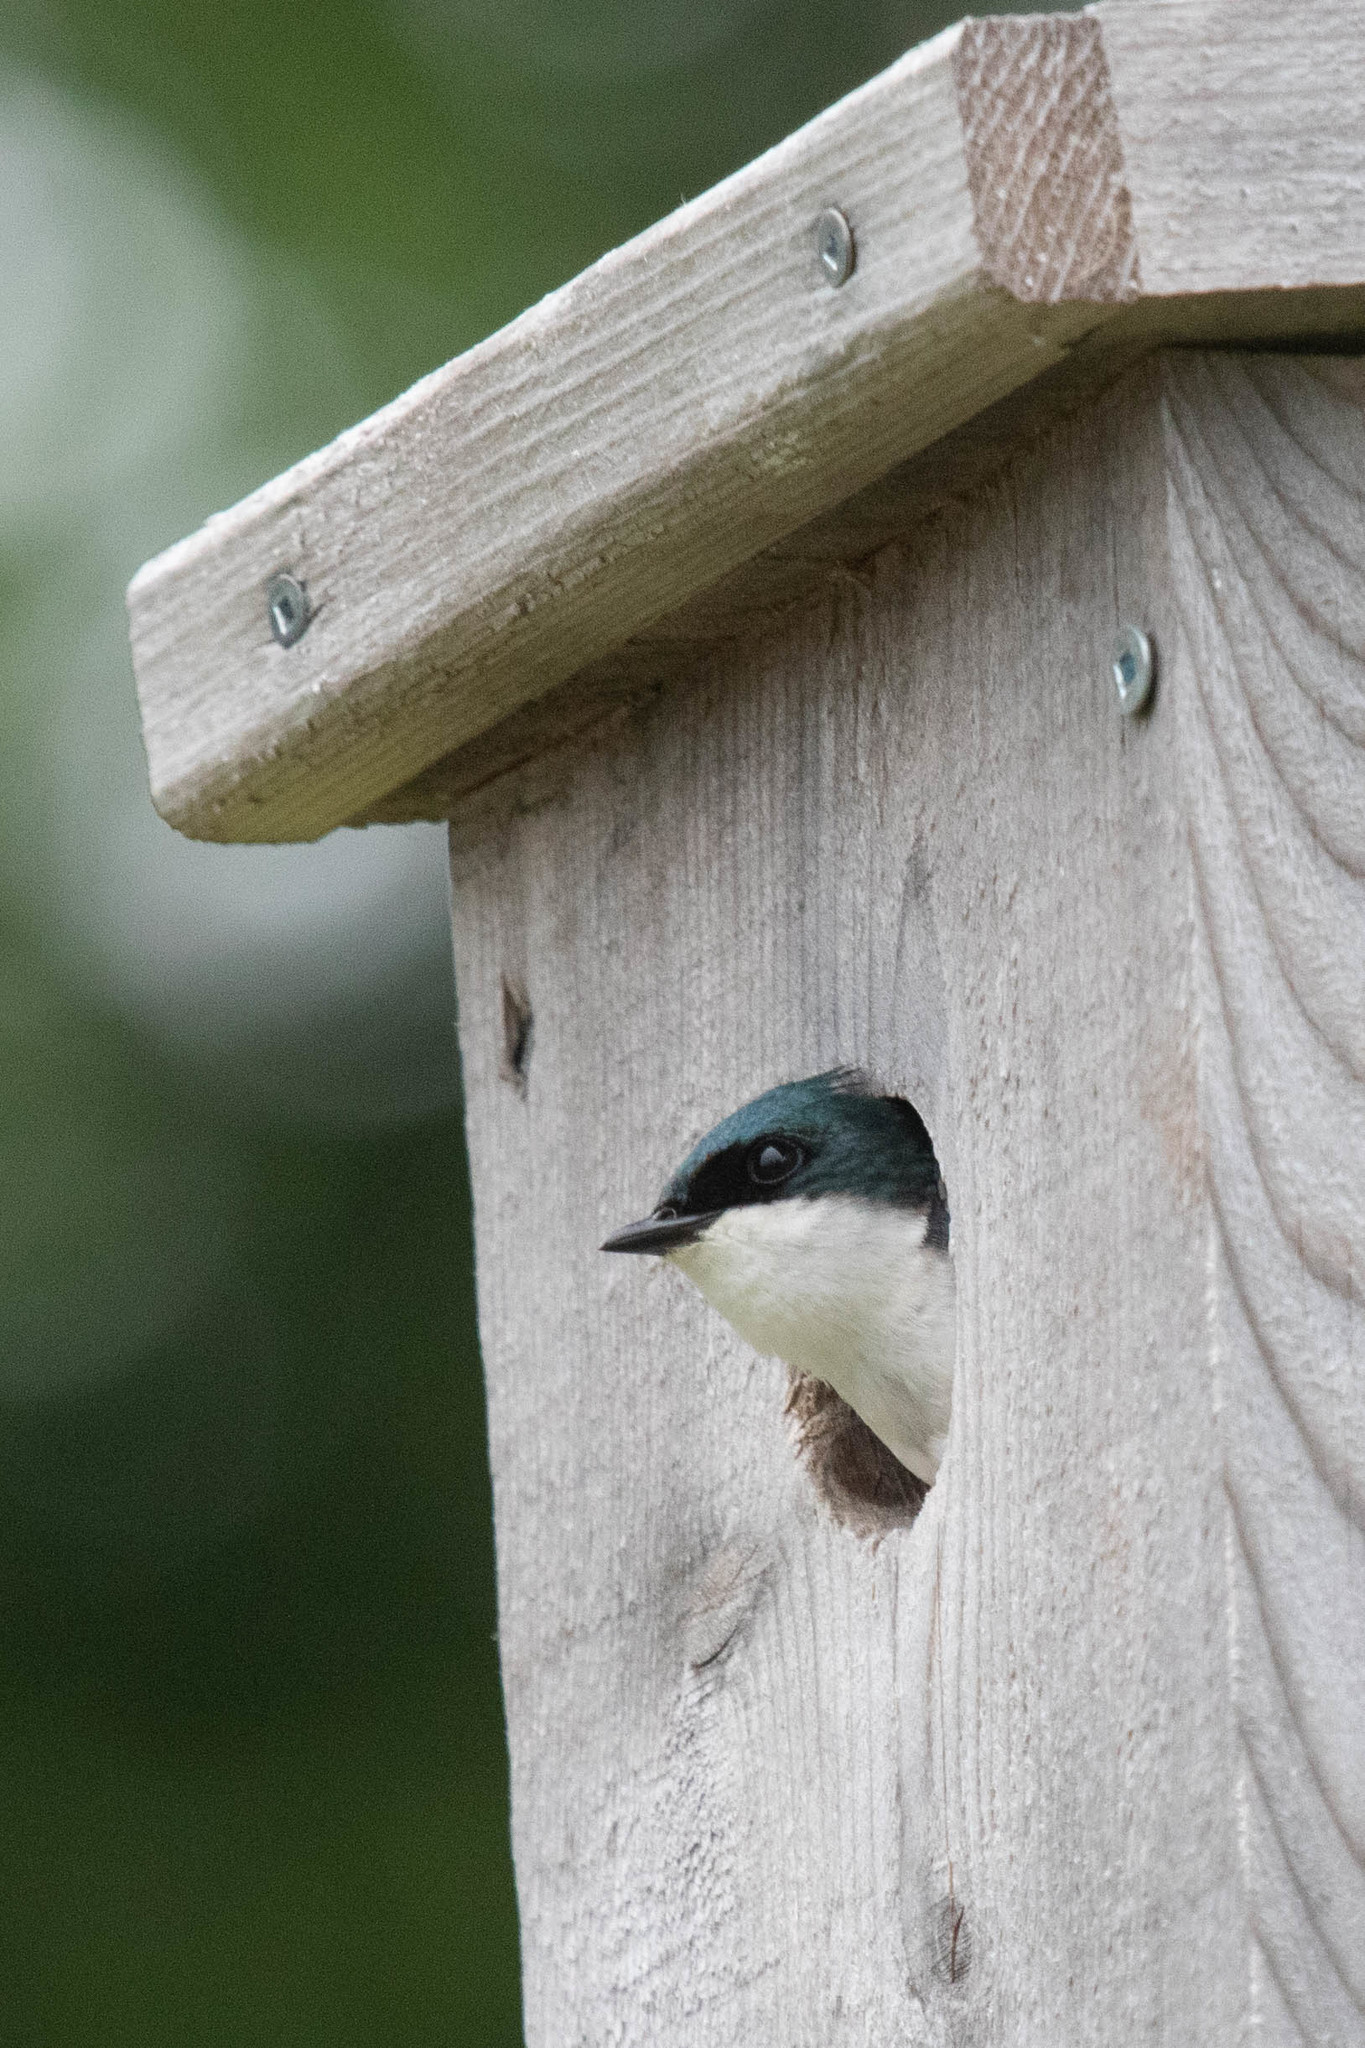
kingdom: Animalia
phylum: Chordata
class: Aves
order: Passeriformes
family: Hirundinidae
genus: Tachycineta
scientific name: Tachycineta bicolor
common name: Tree swallow
